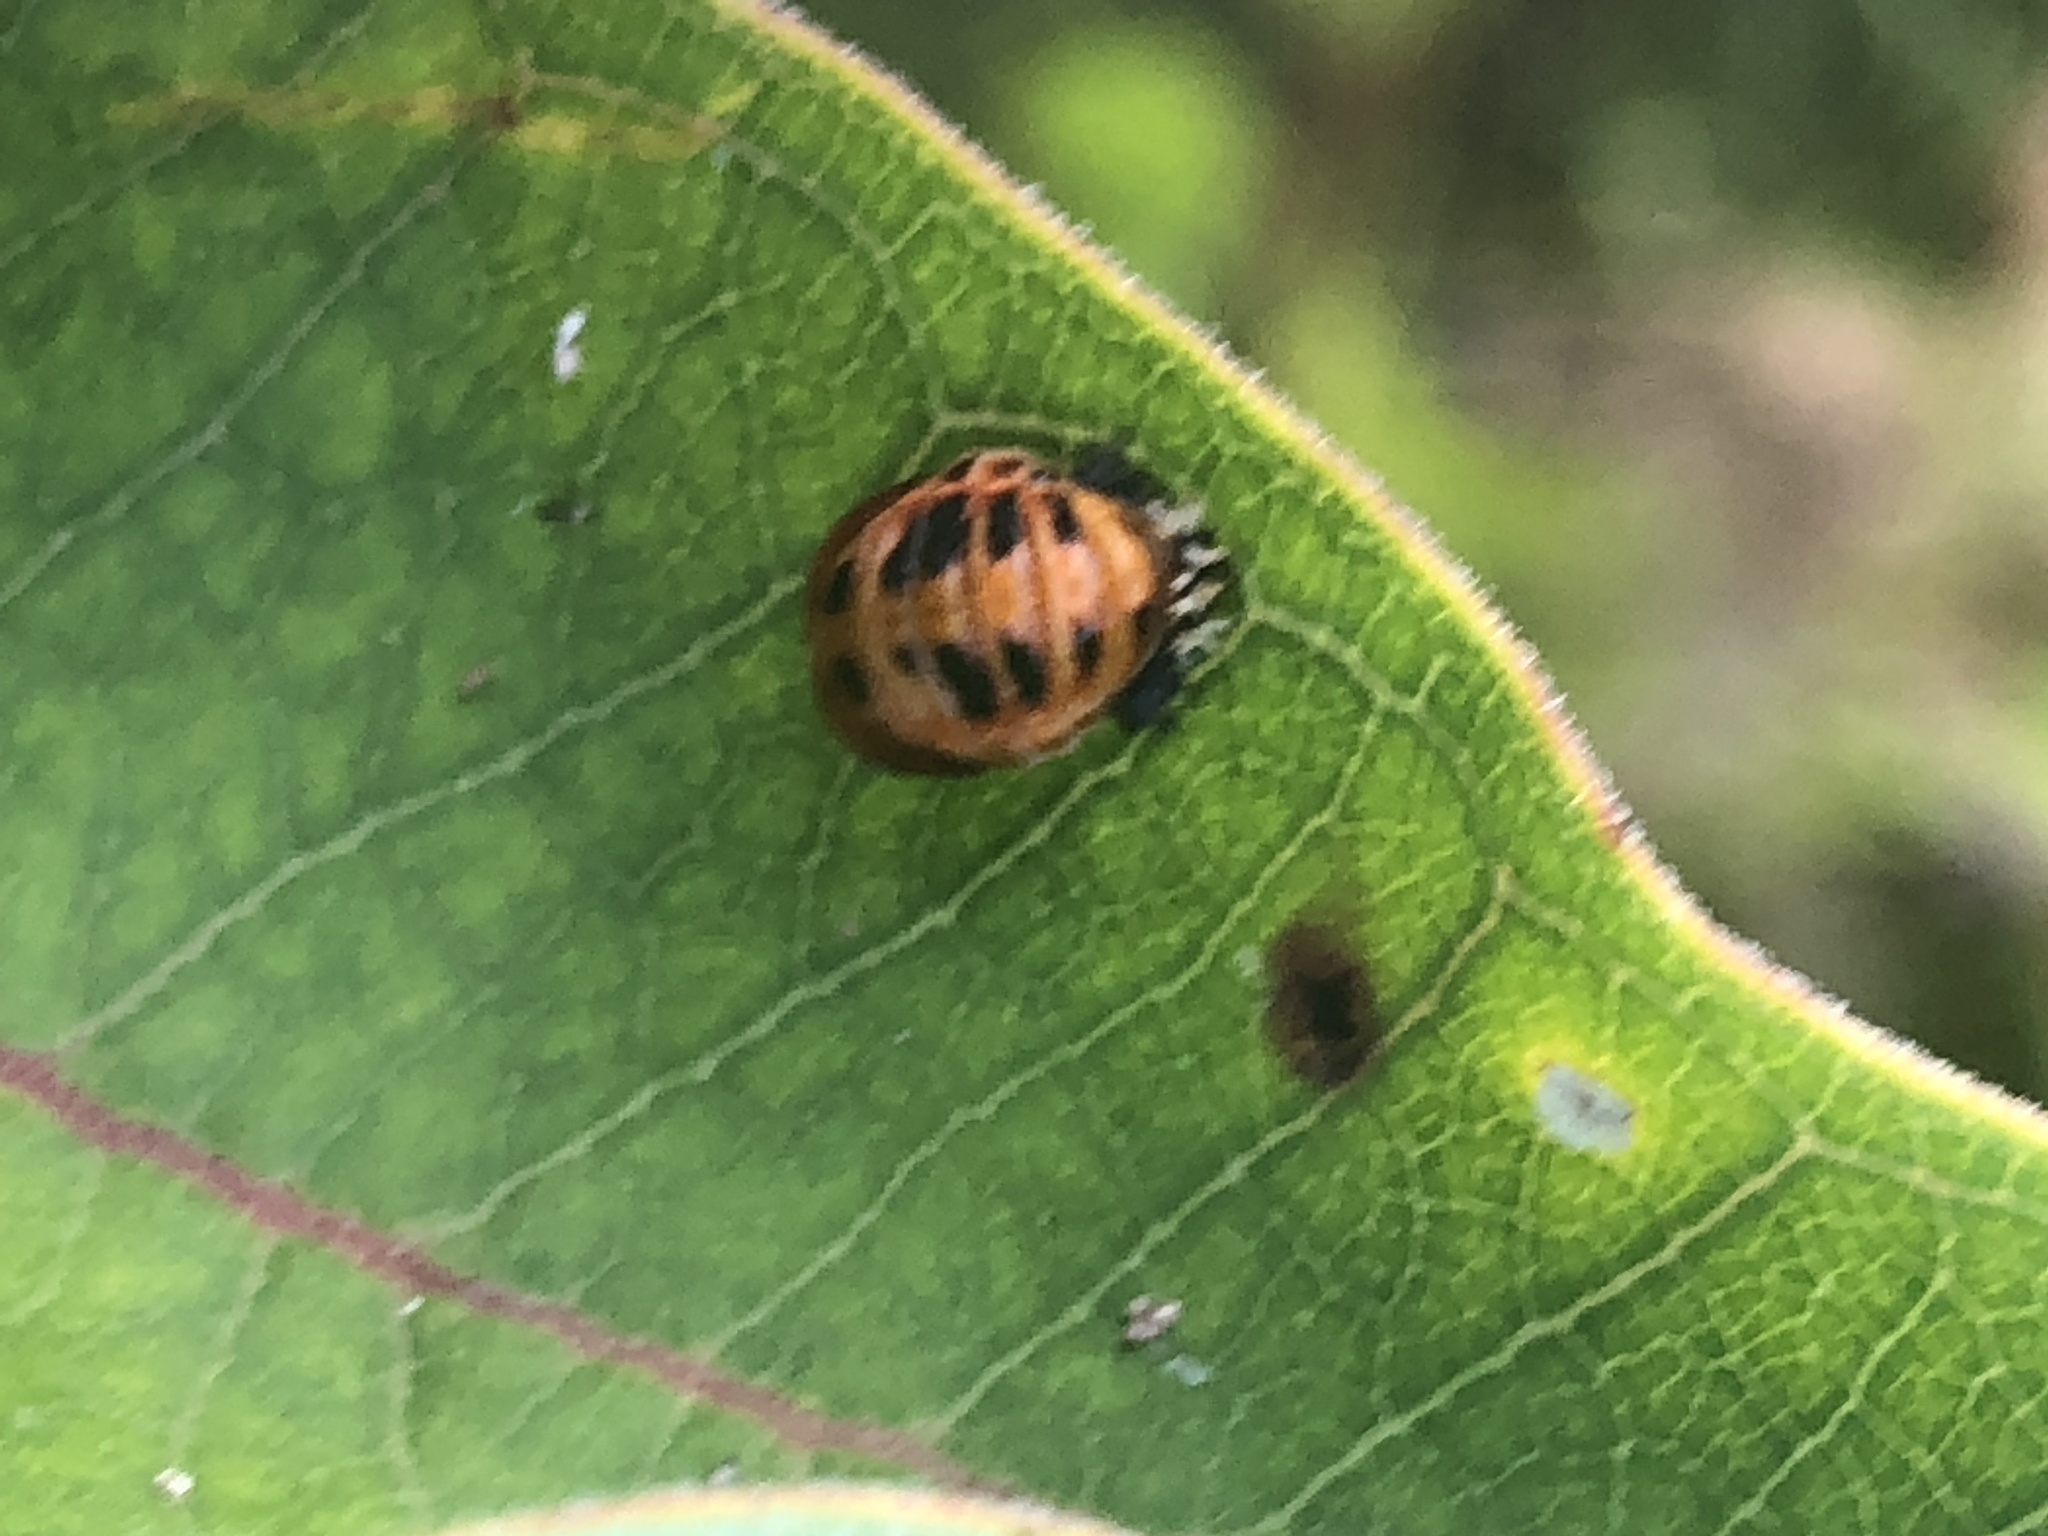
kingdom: Animalia
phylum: Arthropoda
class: Insecta
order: Coleoptera
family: Coccinellidae
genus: Harmonia
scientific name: Harmonia axyridis
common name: Harlequin ladybird
